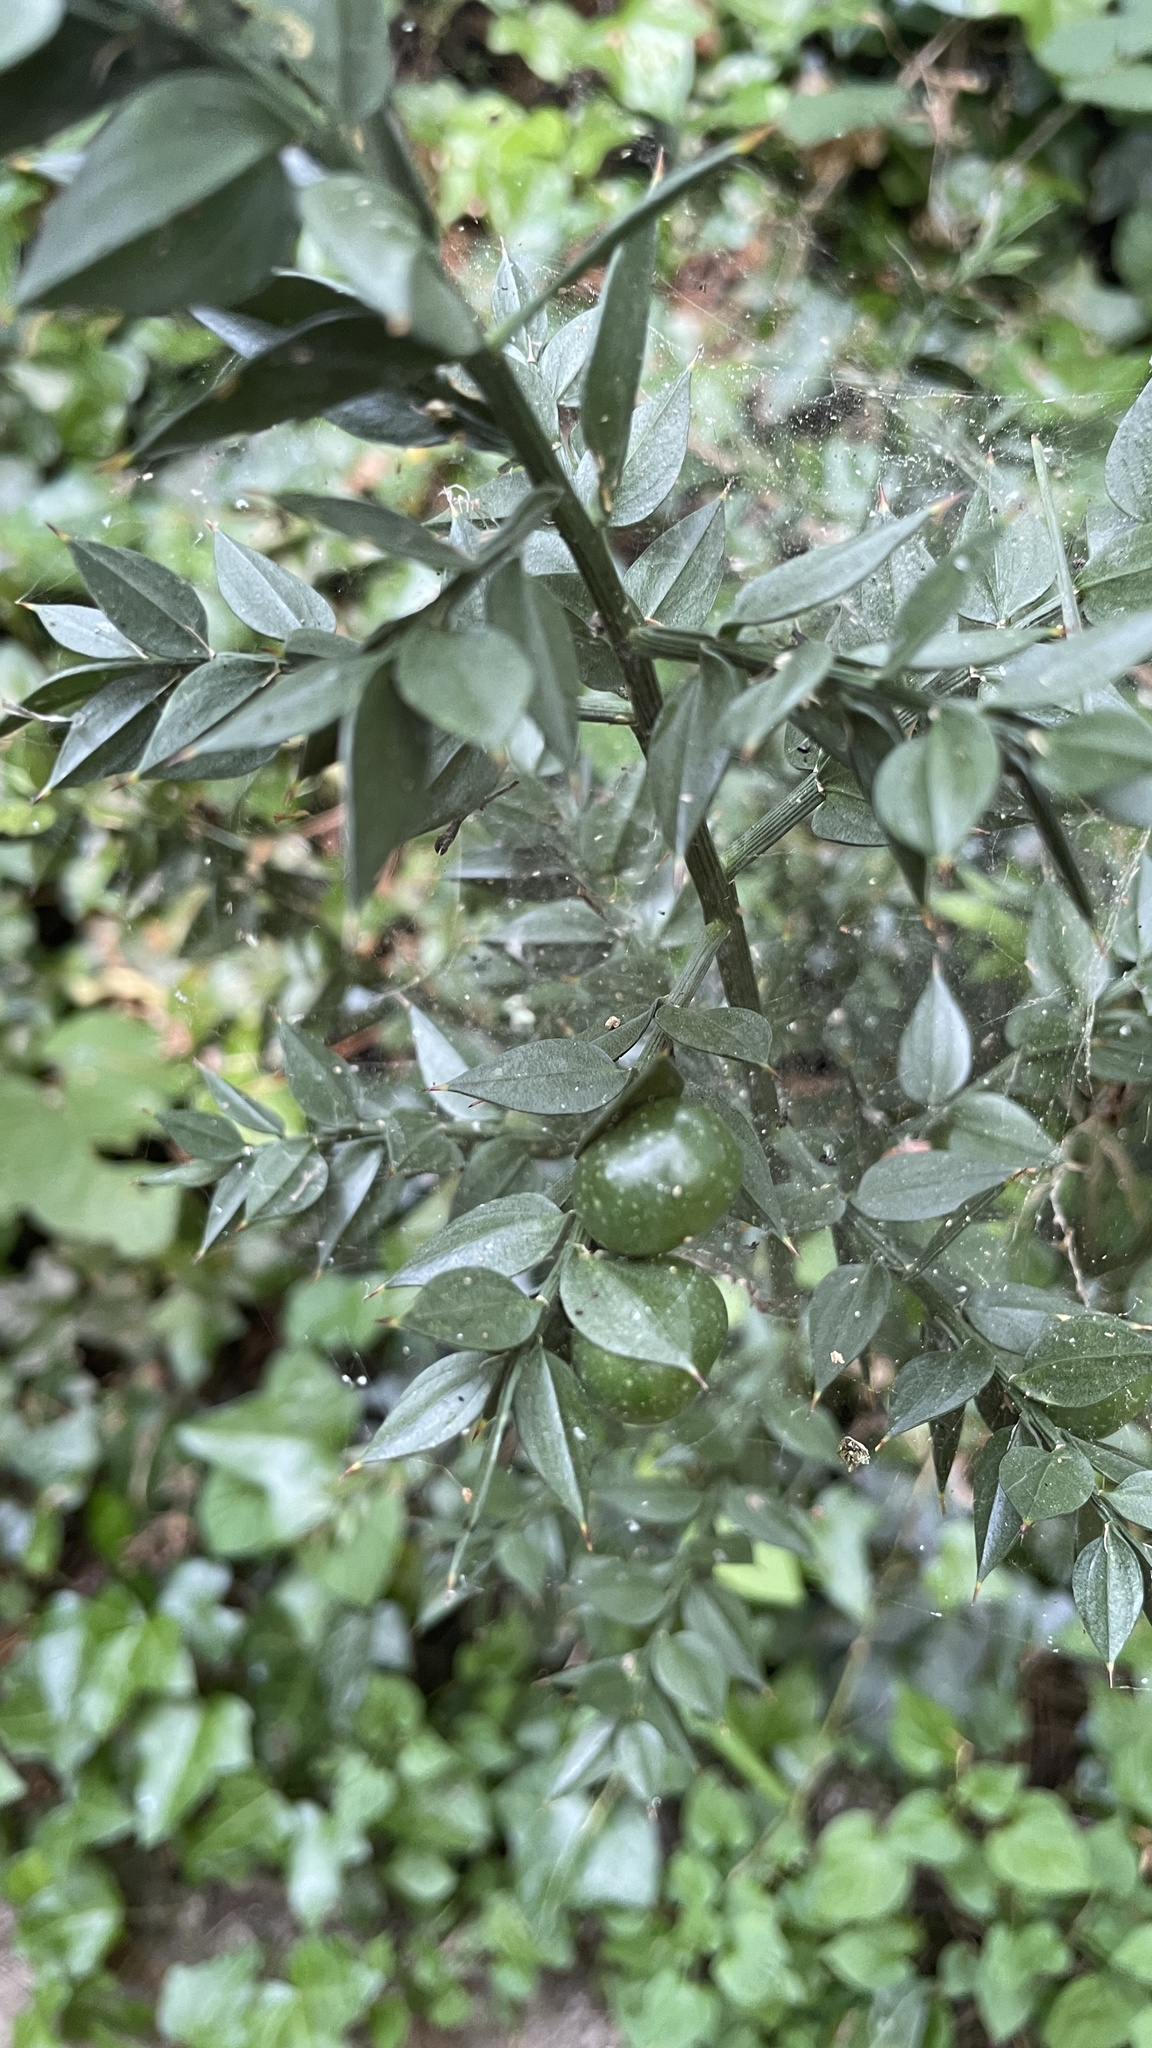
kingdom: Plantae
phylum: Tracheophyta
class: Liliopsida
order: Asparagales
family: Asparagaceae
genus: Ruscus
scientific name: Ruscus aculeatus
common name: Butcher's-broom
